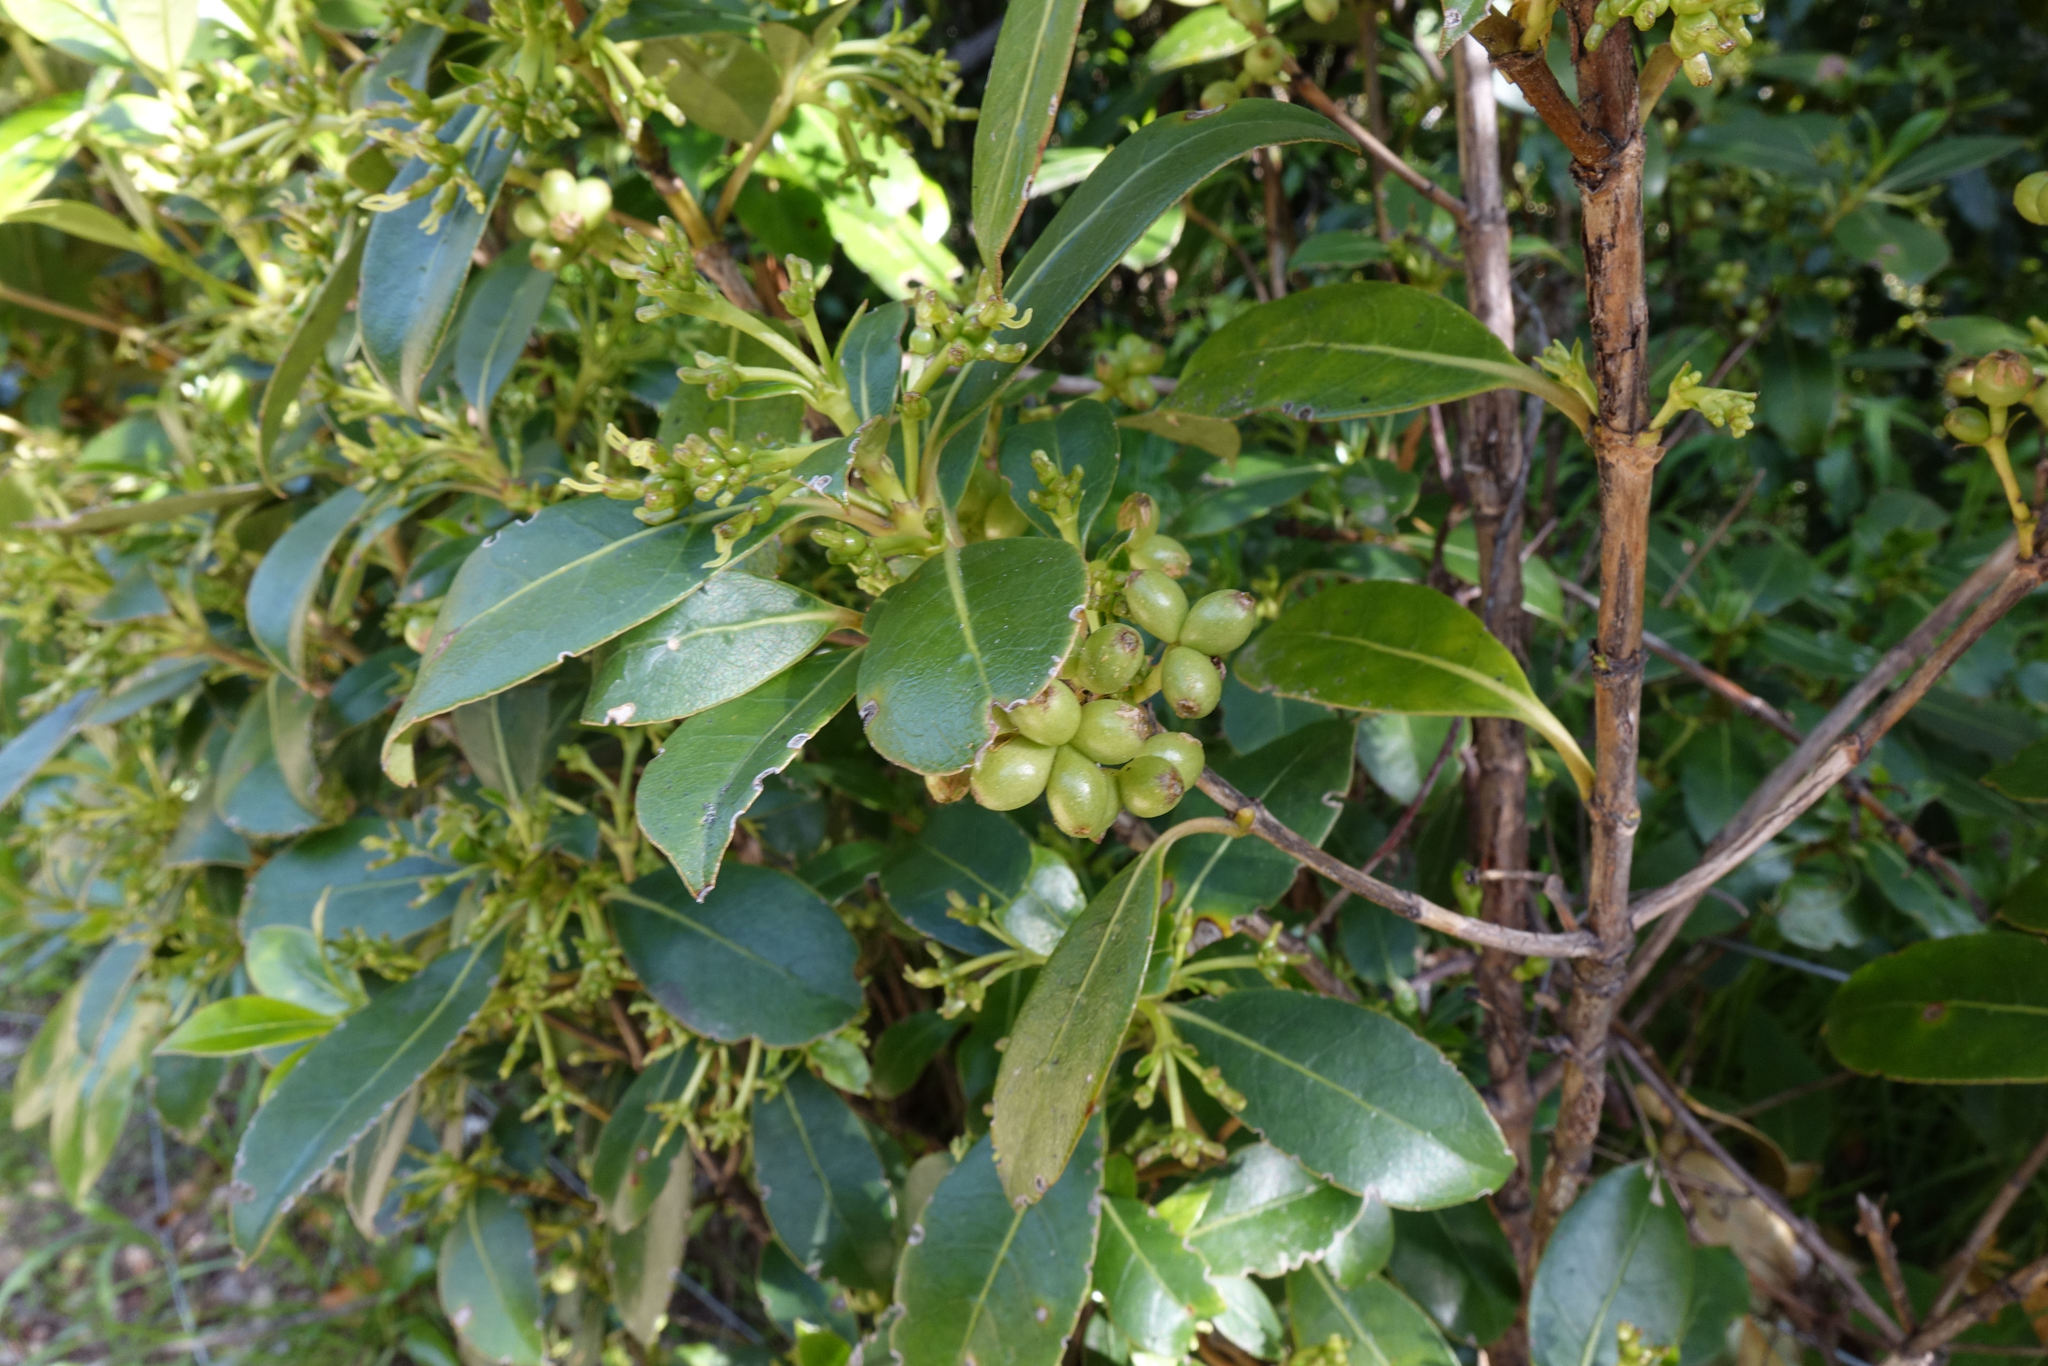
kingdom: Plantae
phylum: Tracheophyta
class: Magnoliopsida
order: Gentianales
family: Rubiaceae
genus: Coprosma
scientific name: Coprosma lucida
